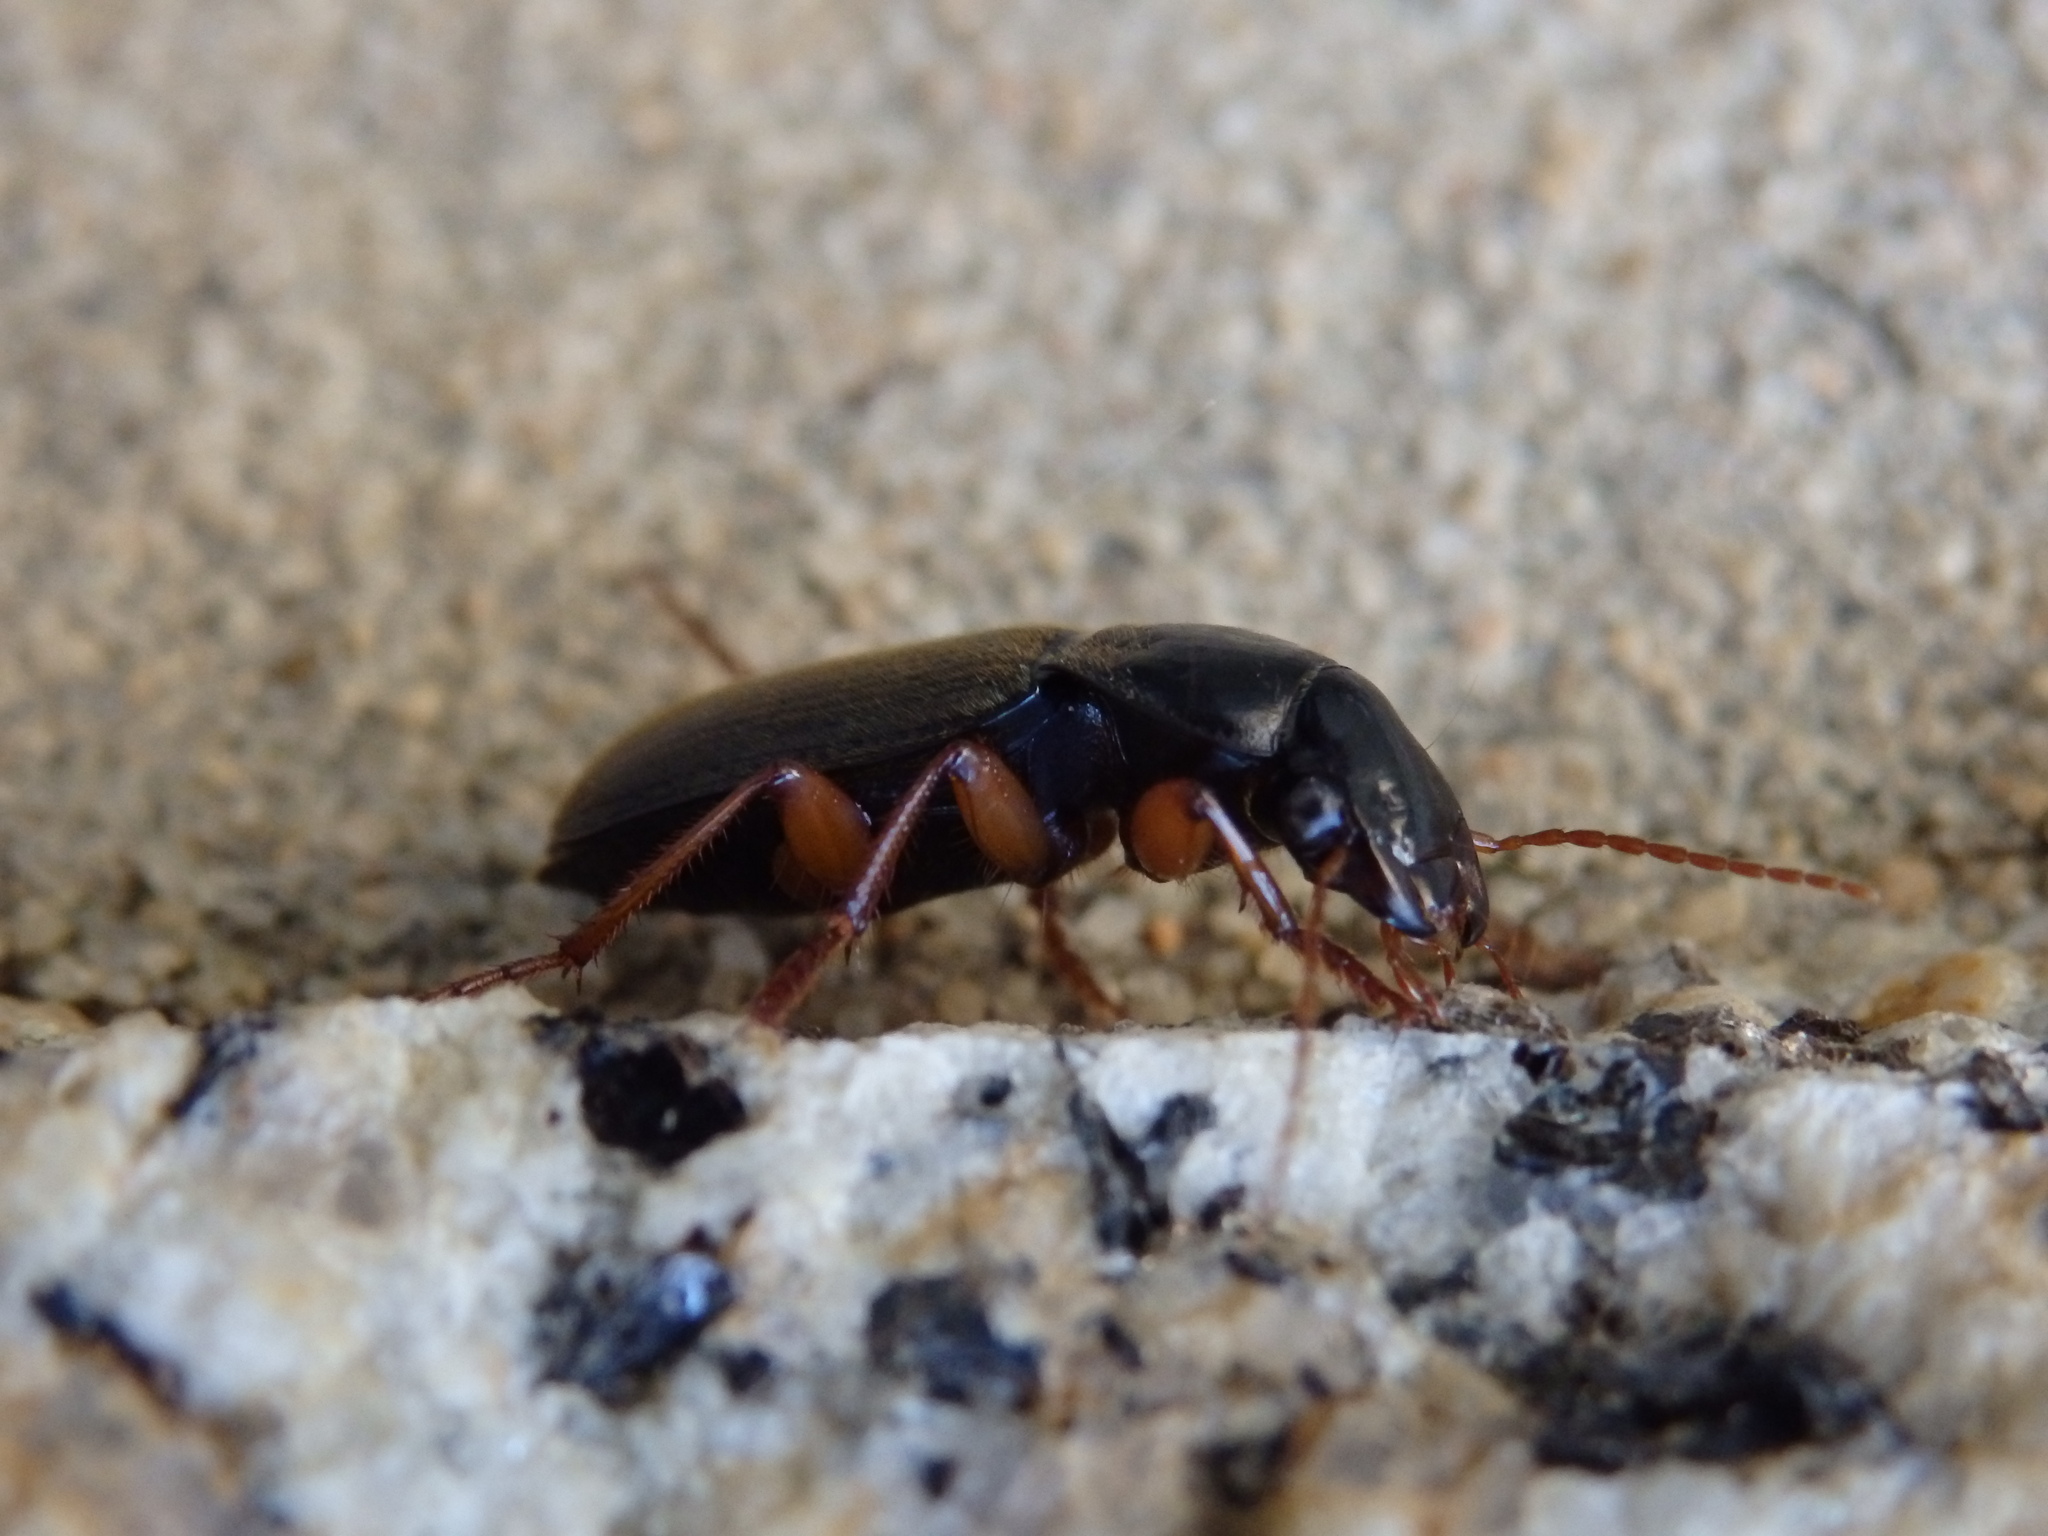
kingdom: Animalia
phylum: Arthropoda
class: Insecta
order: Coleoptera
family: Carabidae
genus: Harpalus
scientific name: Harpalus rufipes
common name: Strawberry harp ground beetle
